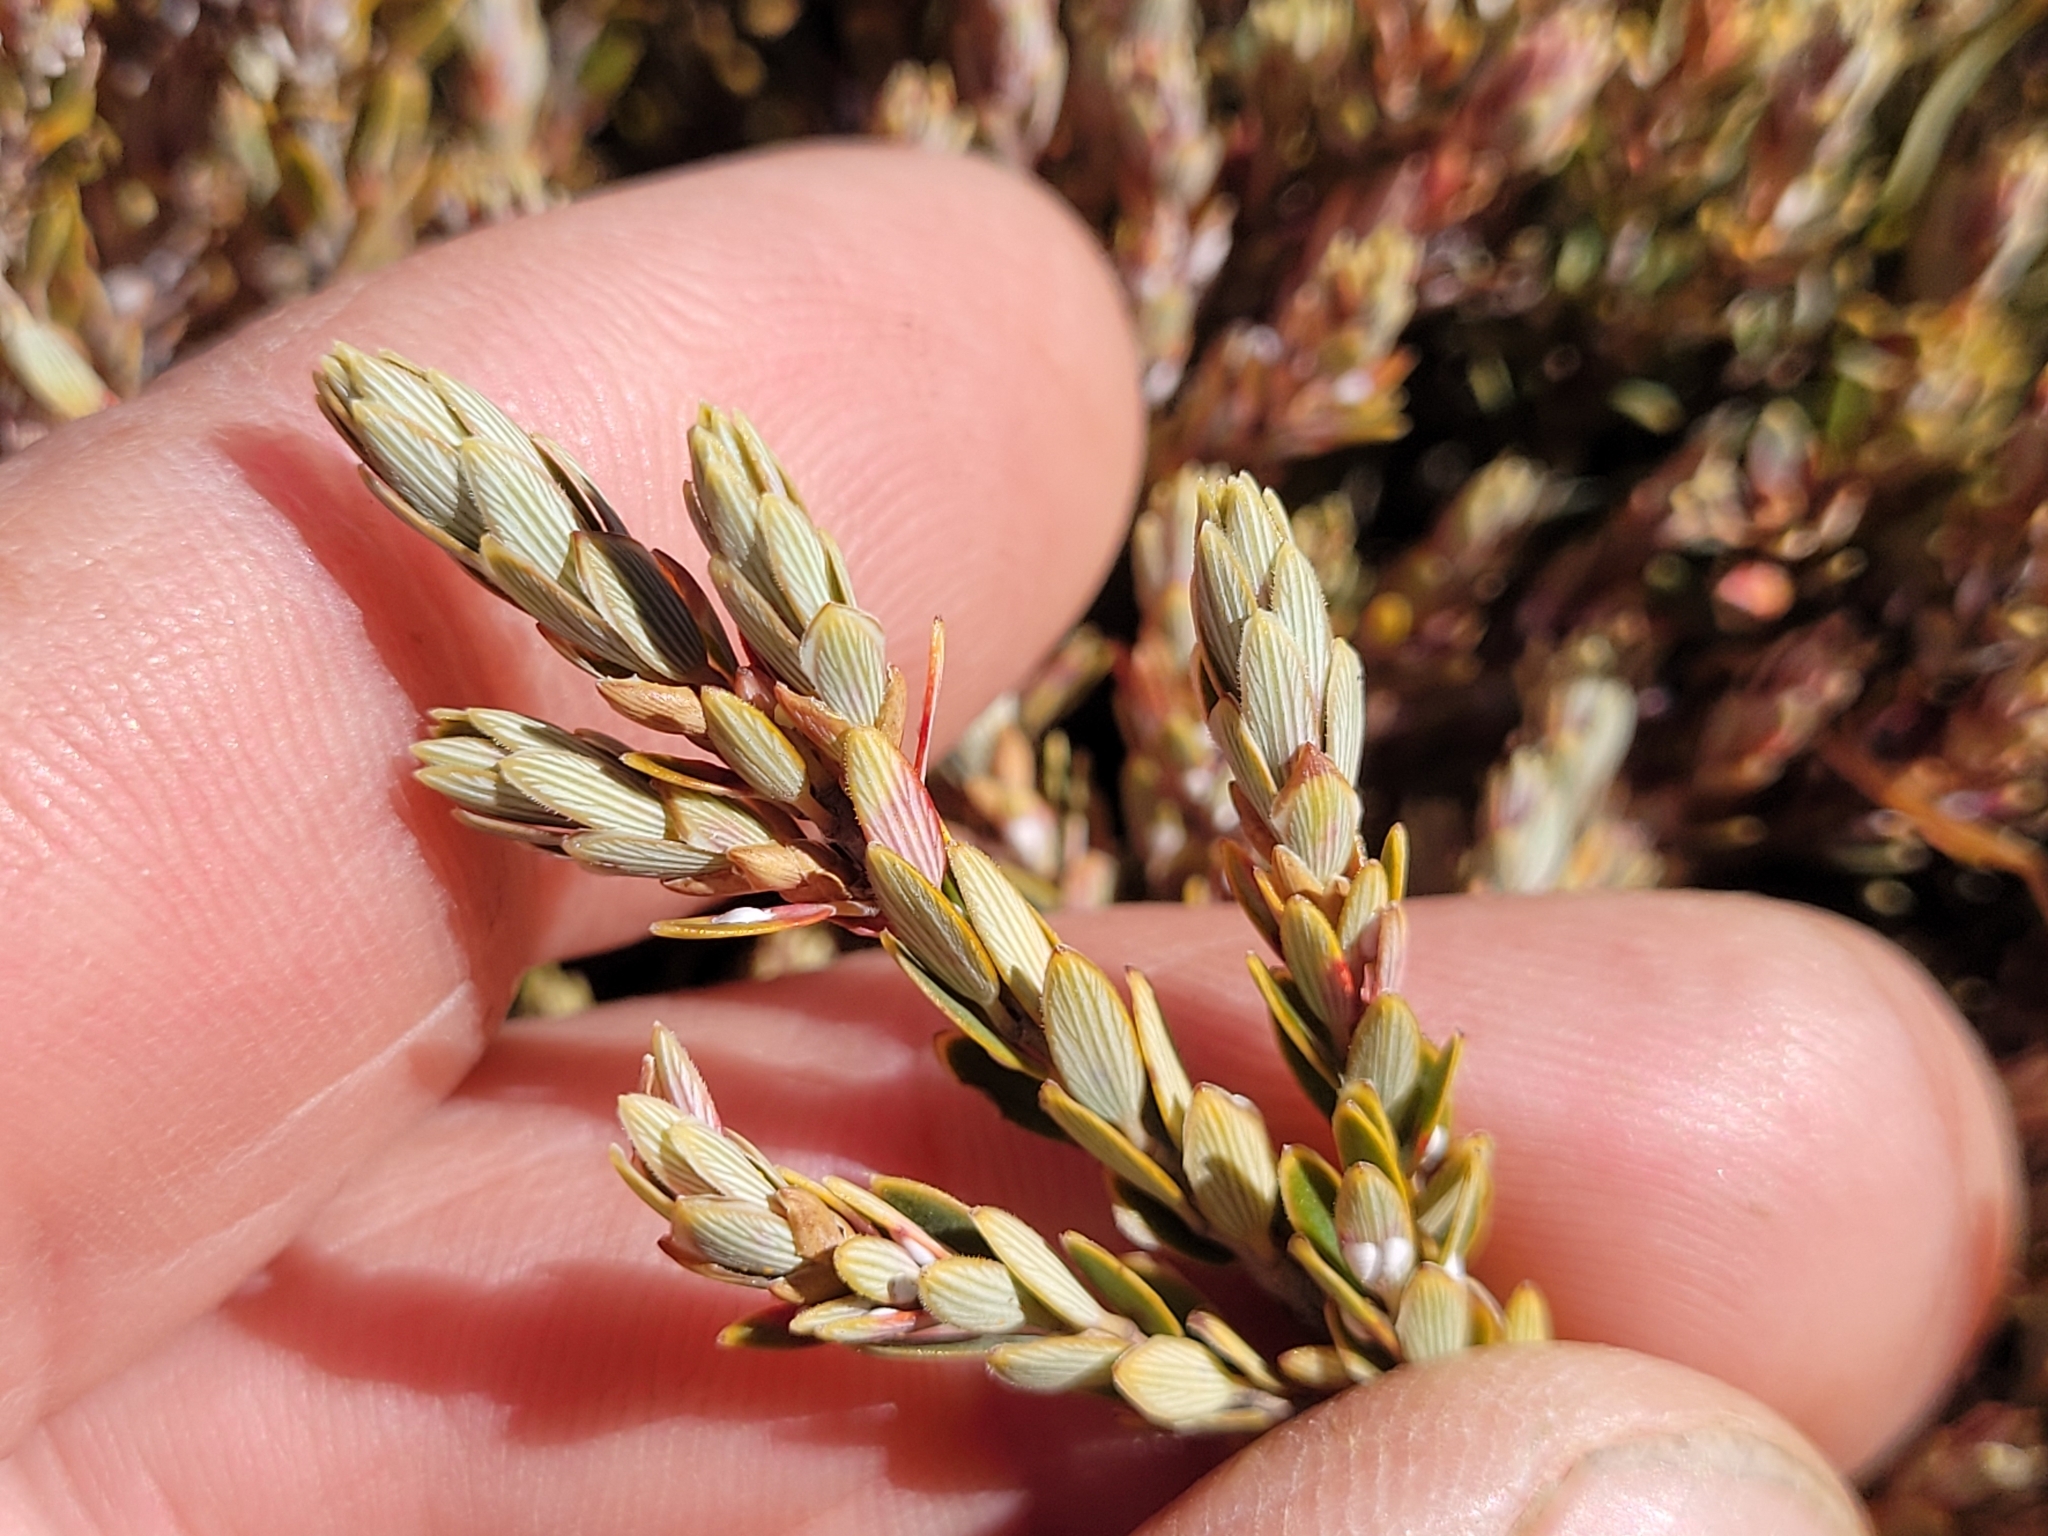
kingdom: Plantae
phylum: Tracheophyta
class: Magnoliopsida
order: Ericales
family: Ericaceae
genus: Acrothamnus
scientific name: Acrothamnus colensoi
